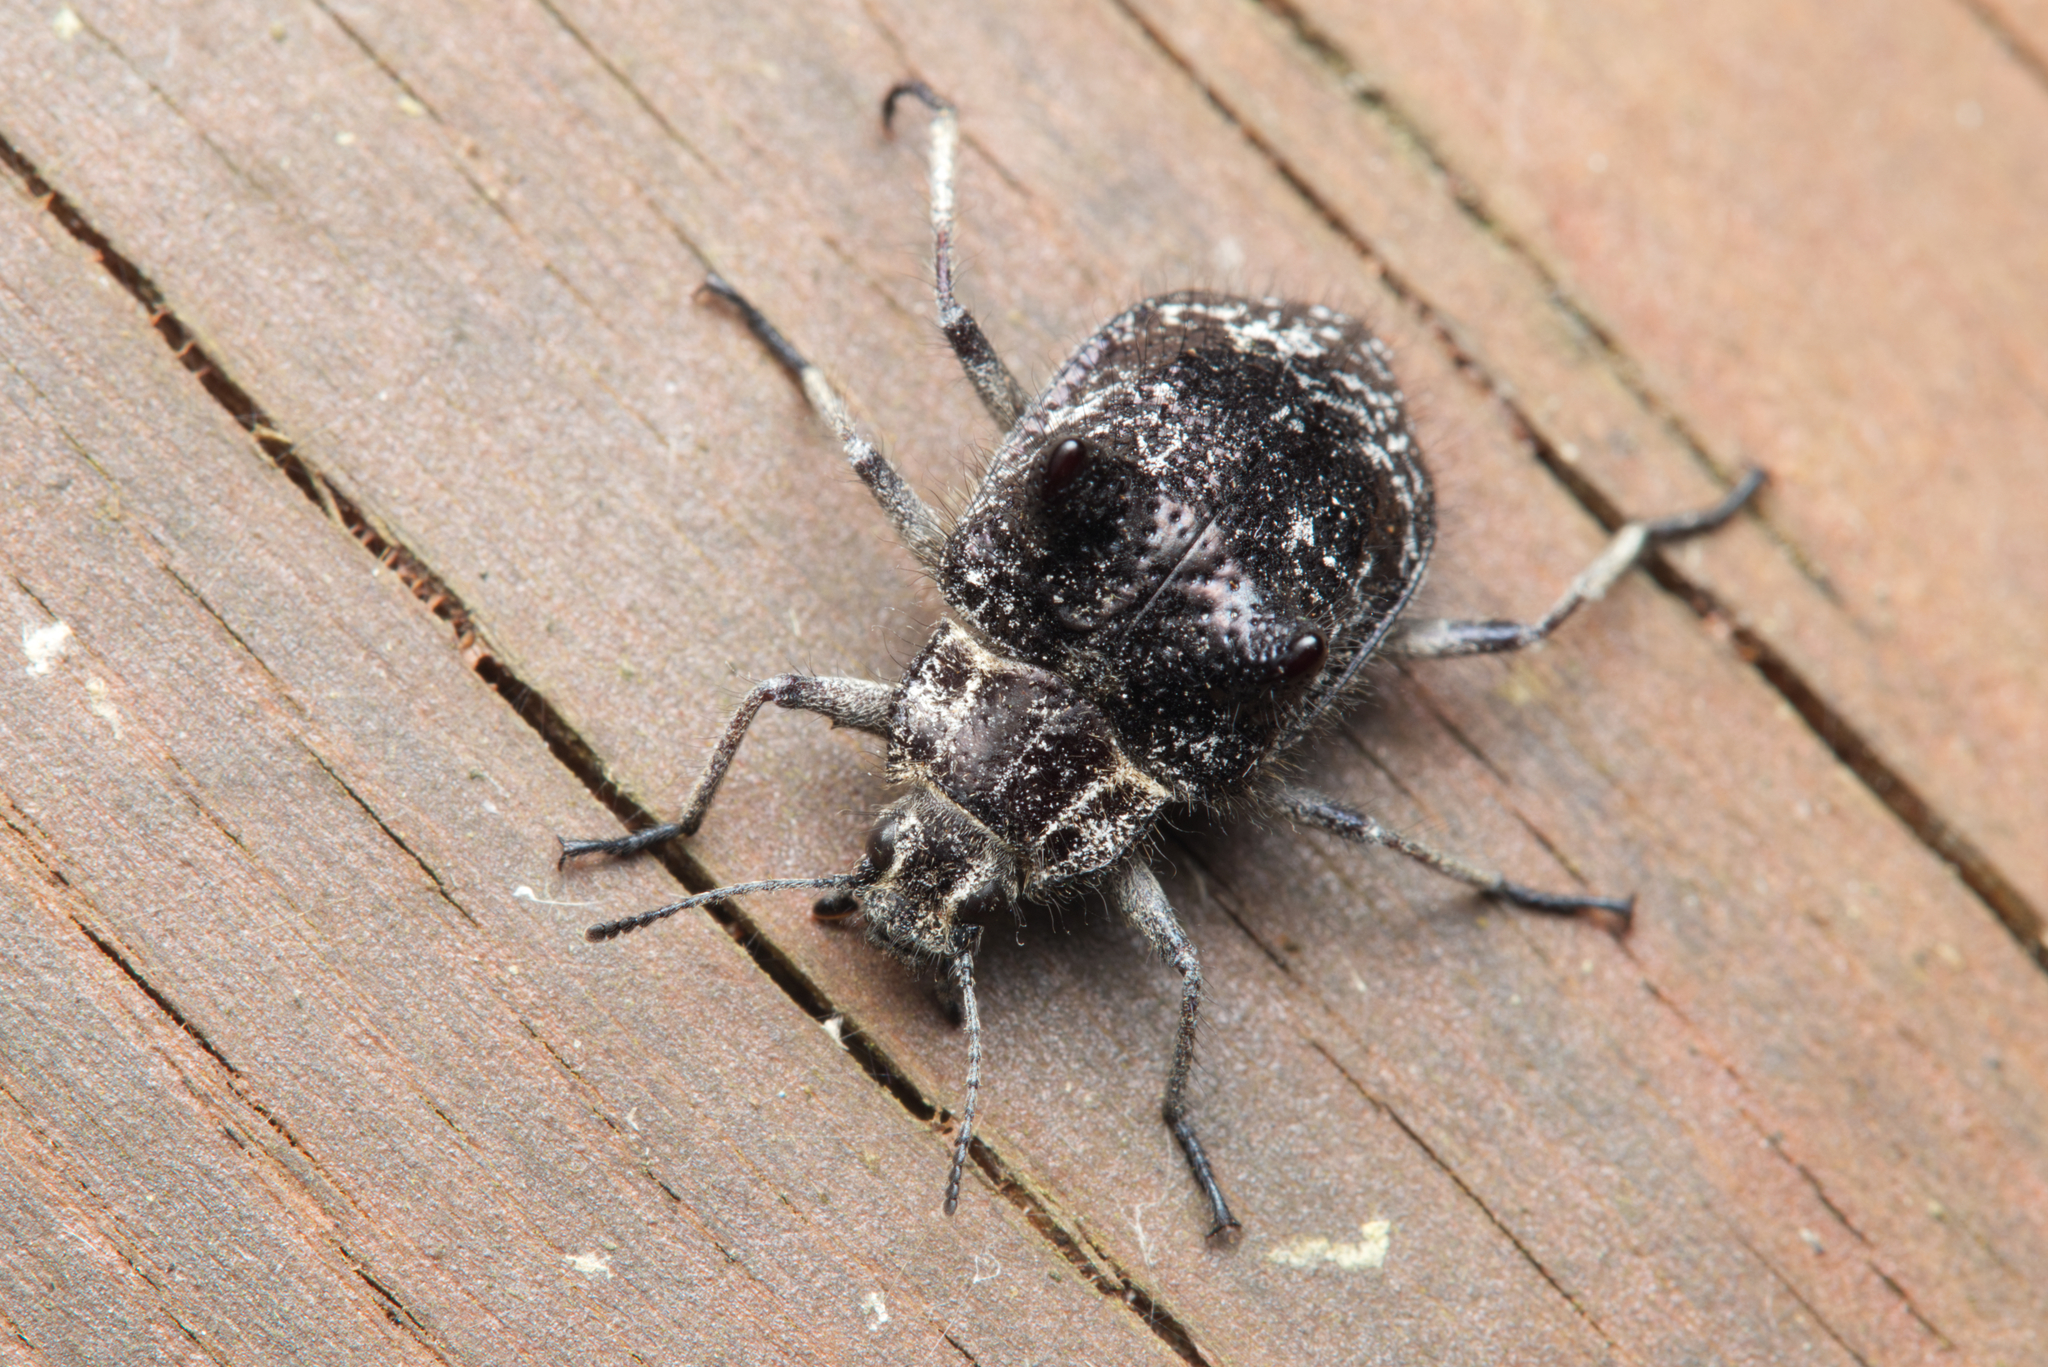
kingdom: Animalia
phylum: Arthropoda
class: Insecta
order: Coleoptera
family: Tenebrionidae
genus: Cyphaleus
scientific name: Cyphaleus
